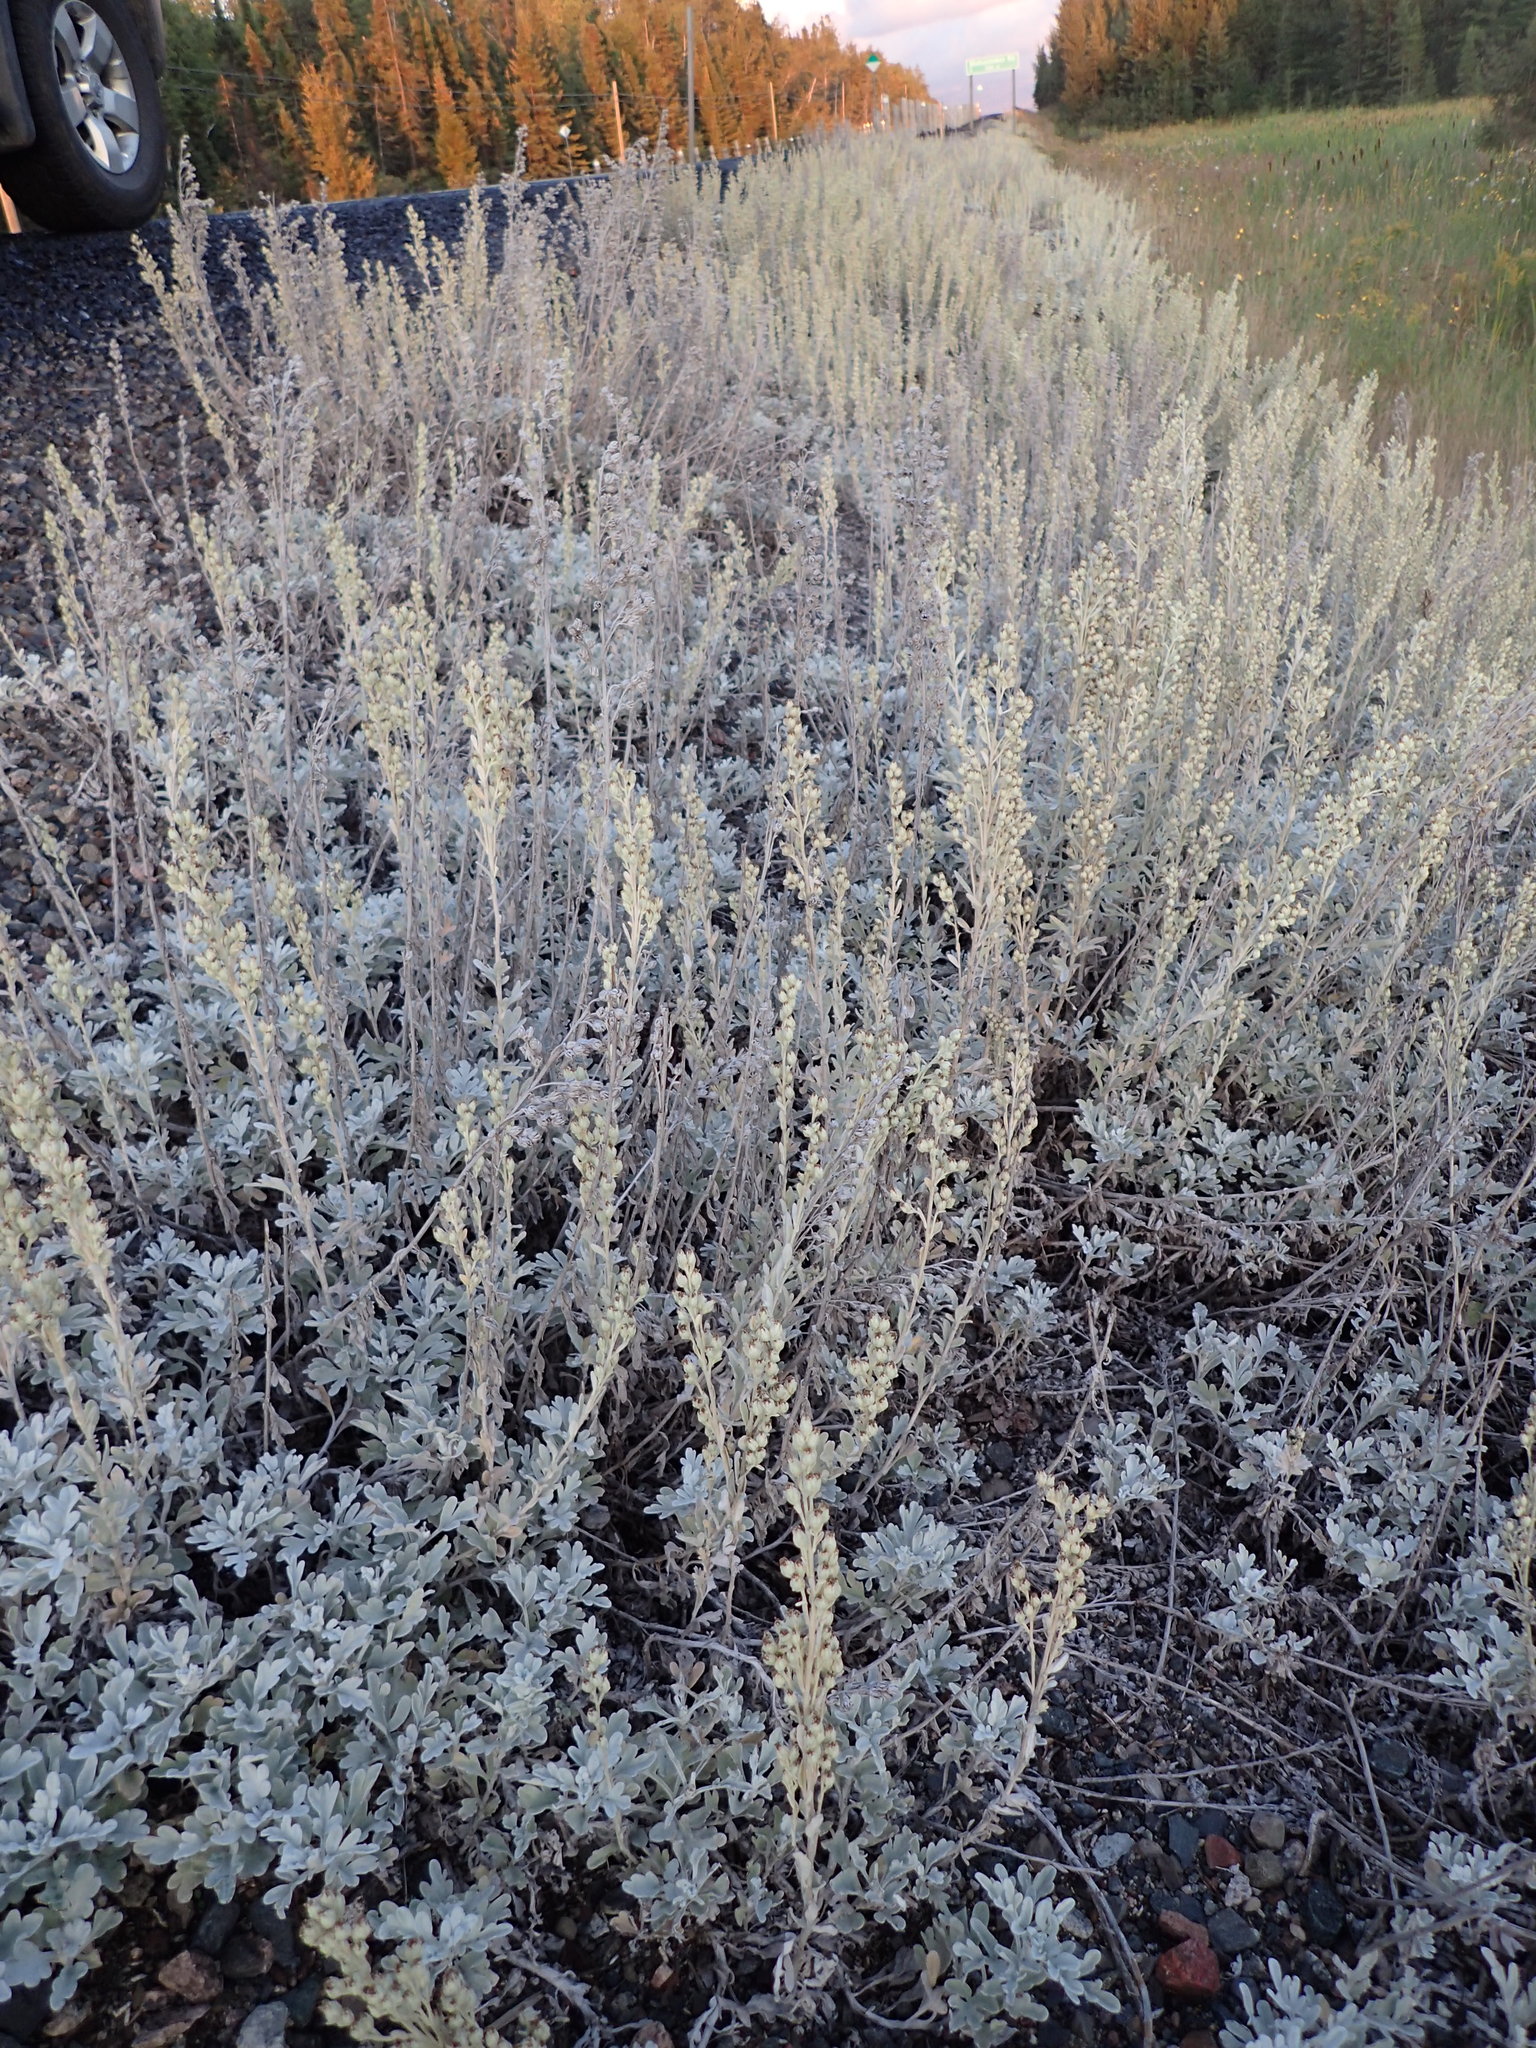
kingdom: Plantae
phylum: Tracheophyta
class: Magnoliopsida
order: Asterales
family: Asteraceae
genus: Artemisia
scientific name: Artemisia stelleriana
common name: Beach wormwood
